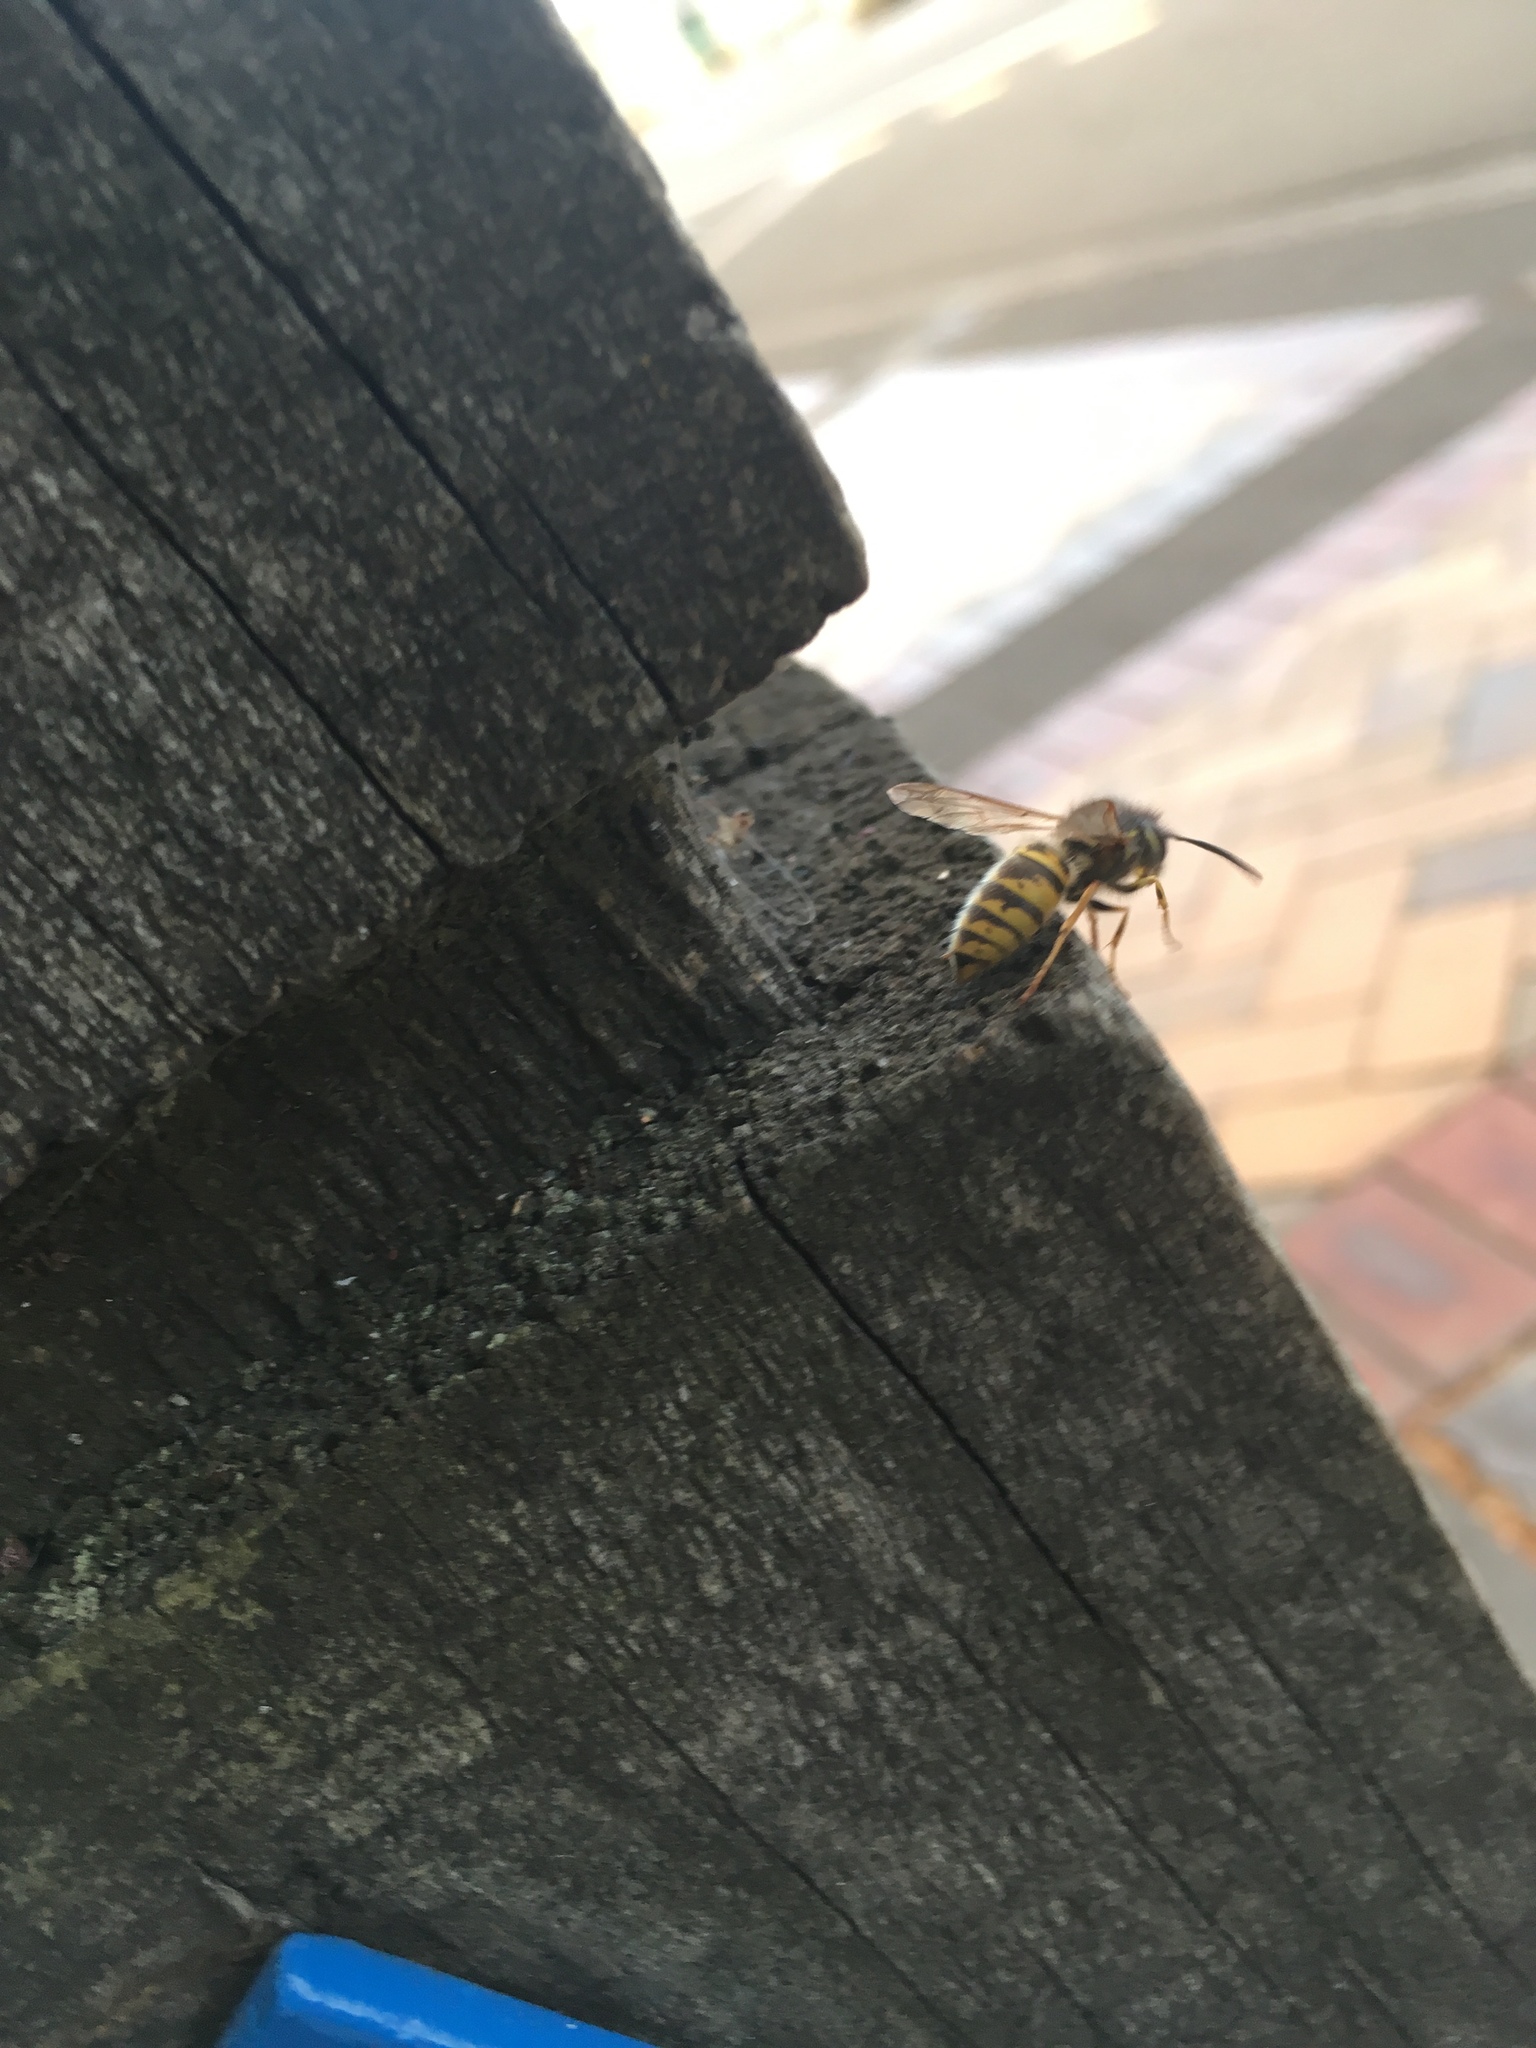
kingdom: Animalia
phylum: Arthropoda
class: Insecta
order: Hymenoptera
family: Vespidae
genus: Vespula
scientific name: Vespula vulgaris
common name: Common wasp
